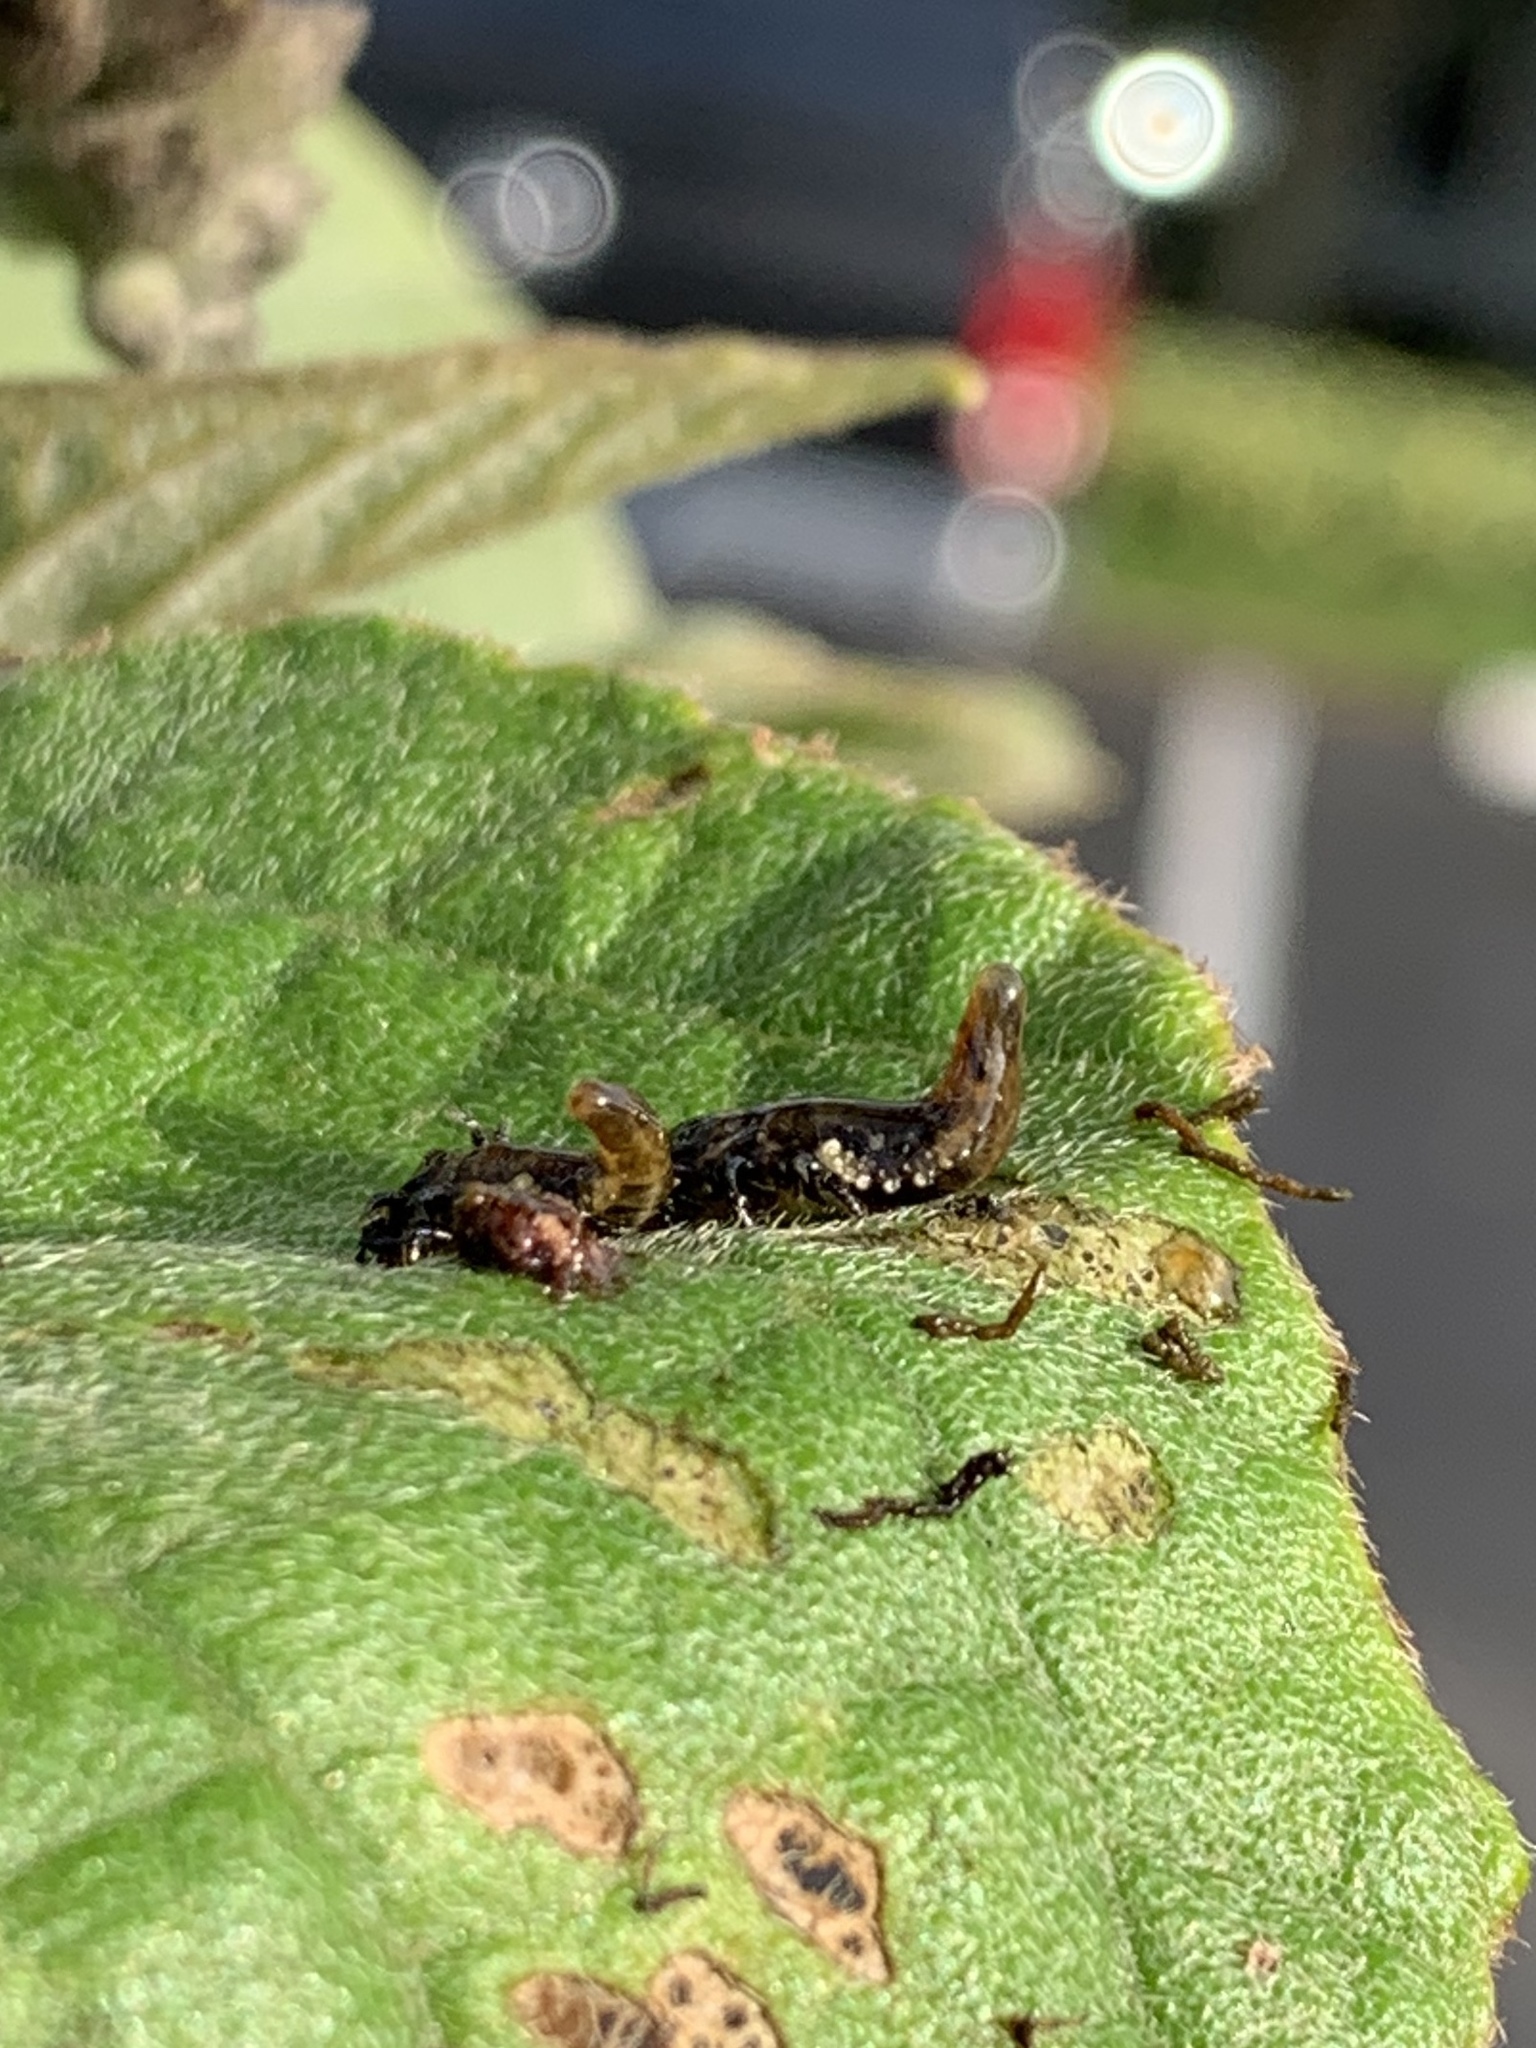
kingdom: Animalia
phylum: Arthropoda
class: Insecta
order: Coleoptera
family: Chrysomelidae
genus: Eurypepla
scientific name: Eurypepla calochroma
